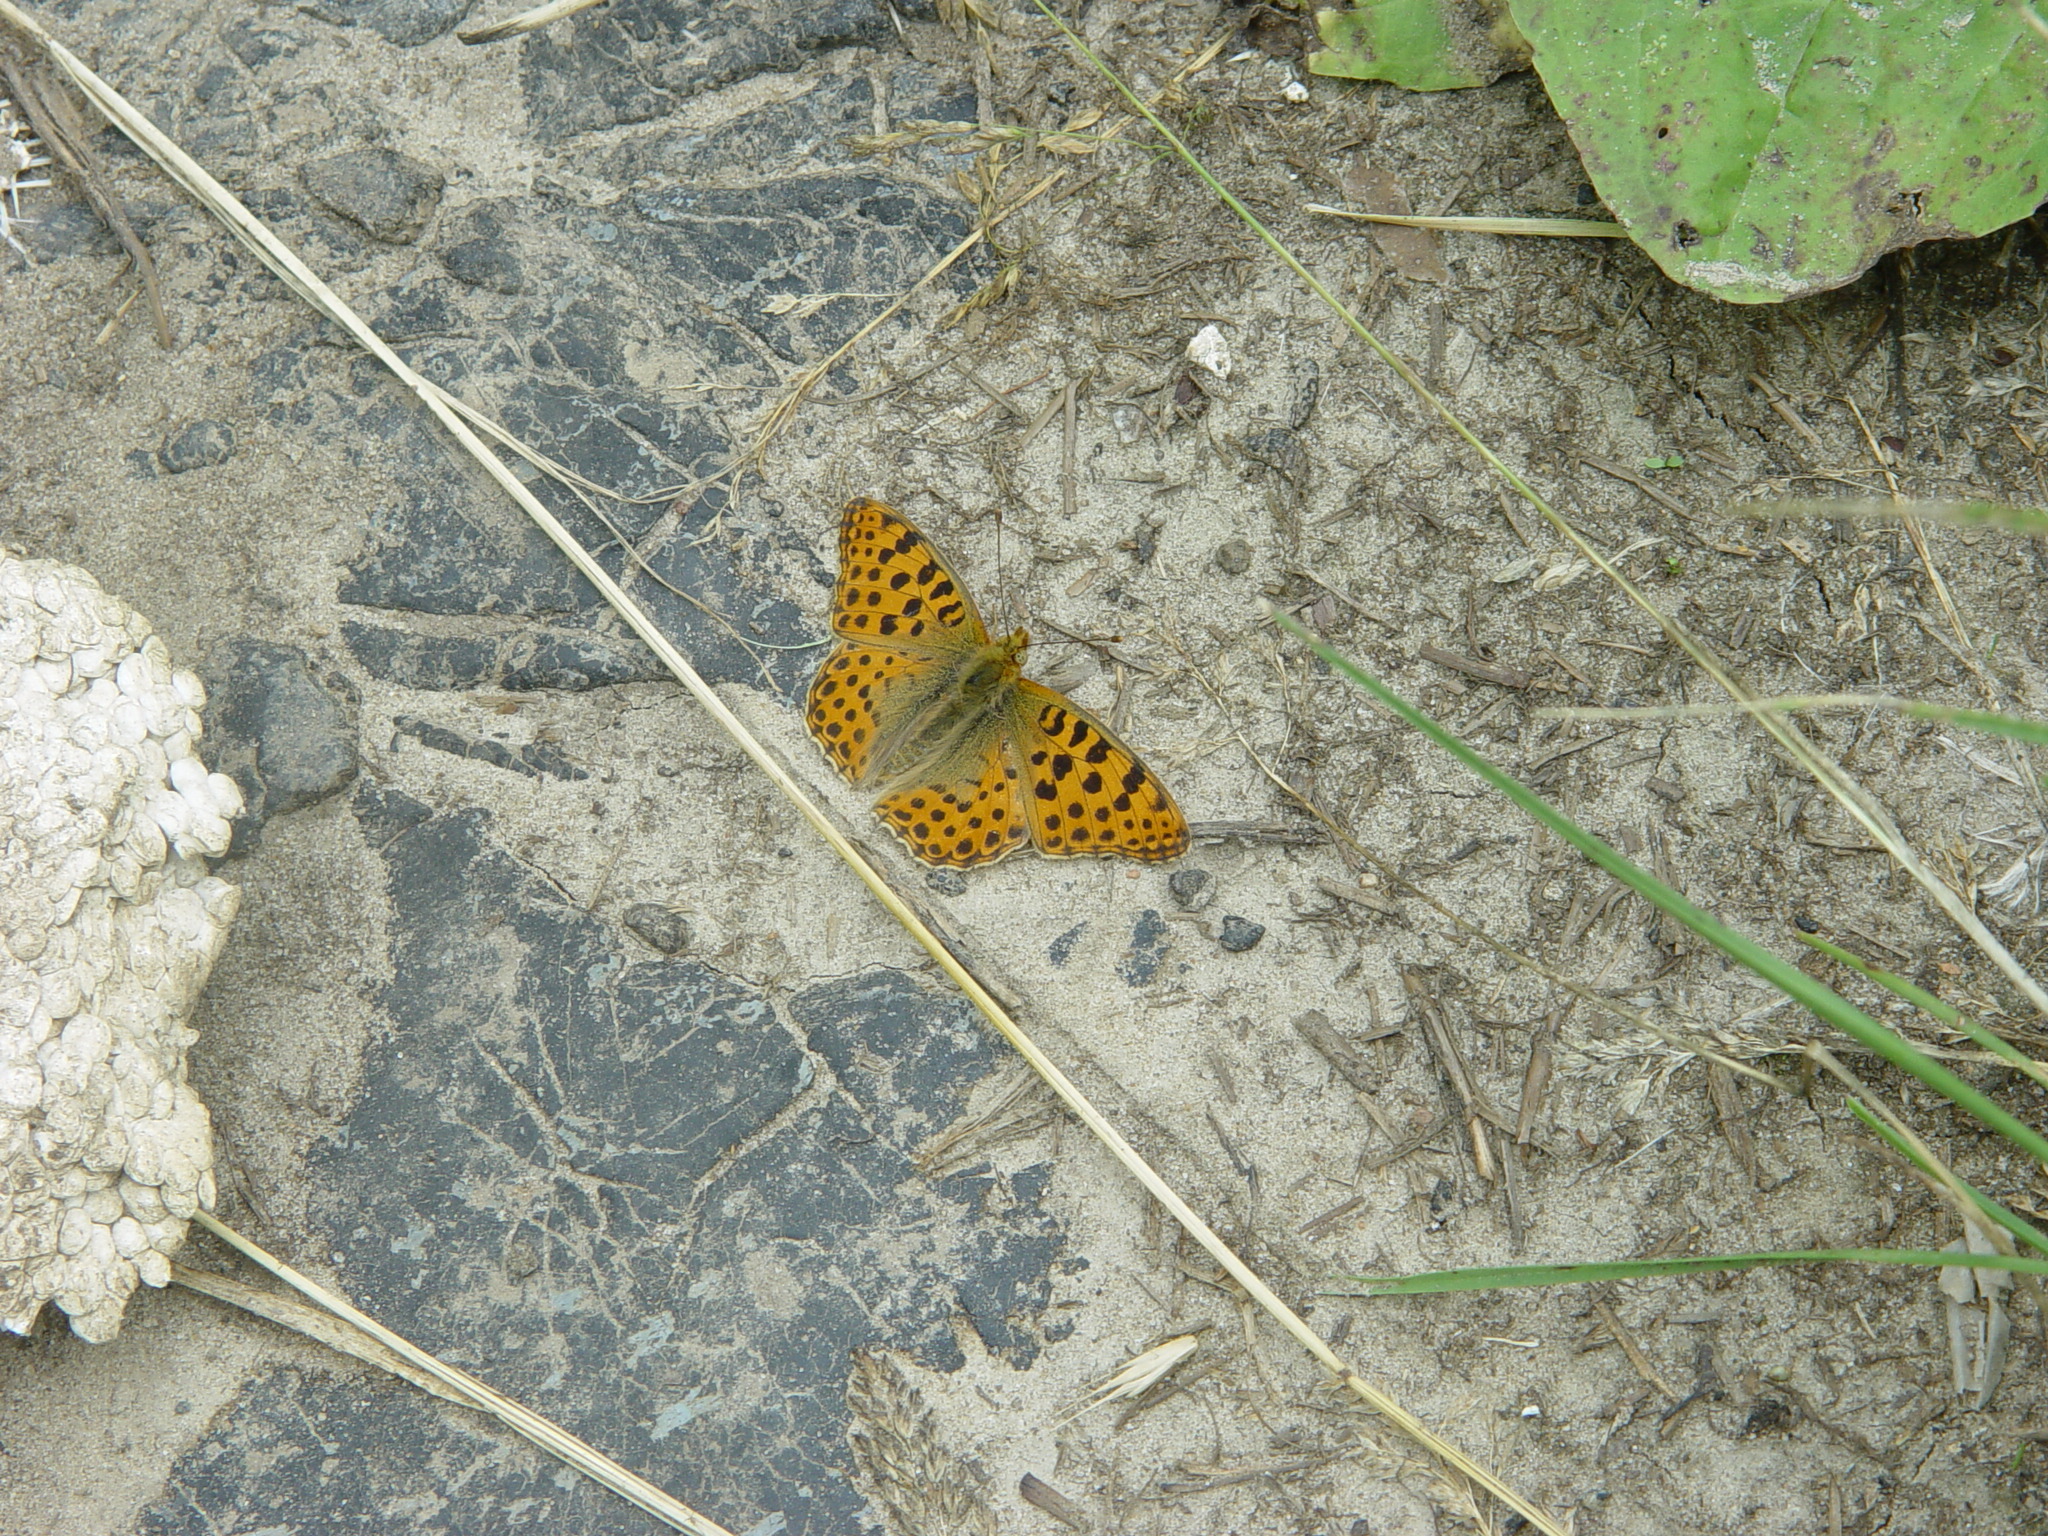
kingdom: Animalia
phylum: Arthropoda
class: Insecta
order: Lepidoptera
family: Nymphalidae
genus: Issoria
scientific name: Issoria lathonia
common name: Queen of spain fritillary
